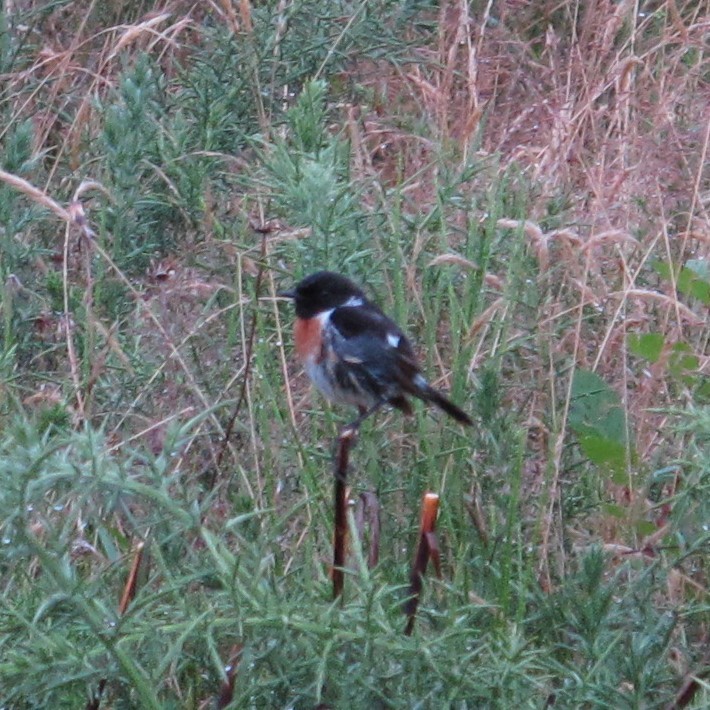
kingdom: Animalia
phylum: Chordata
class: Aves
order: Passeriformes
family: Muscicapidae
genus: Saxicola
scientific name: Saxicola rubicola
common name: European stonechat
